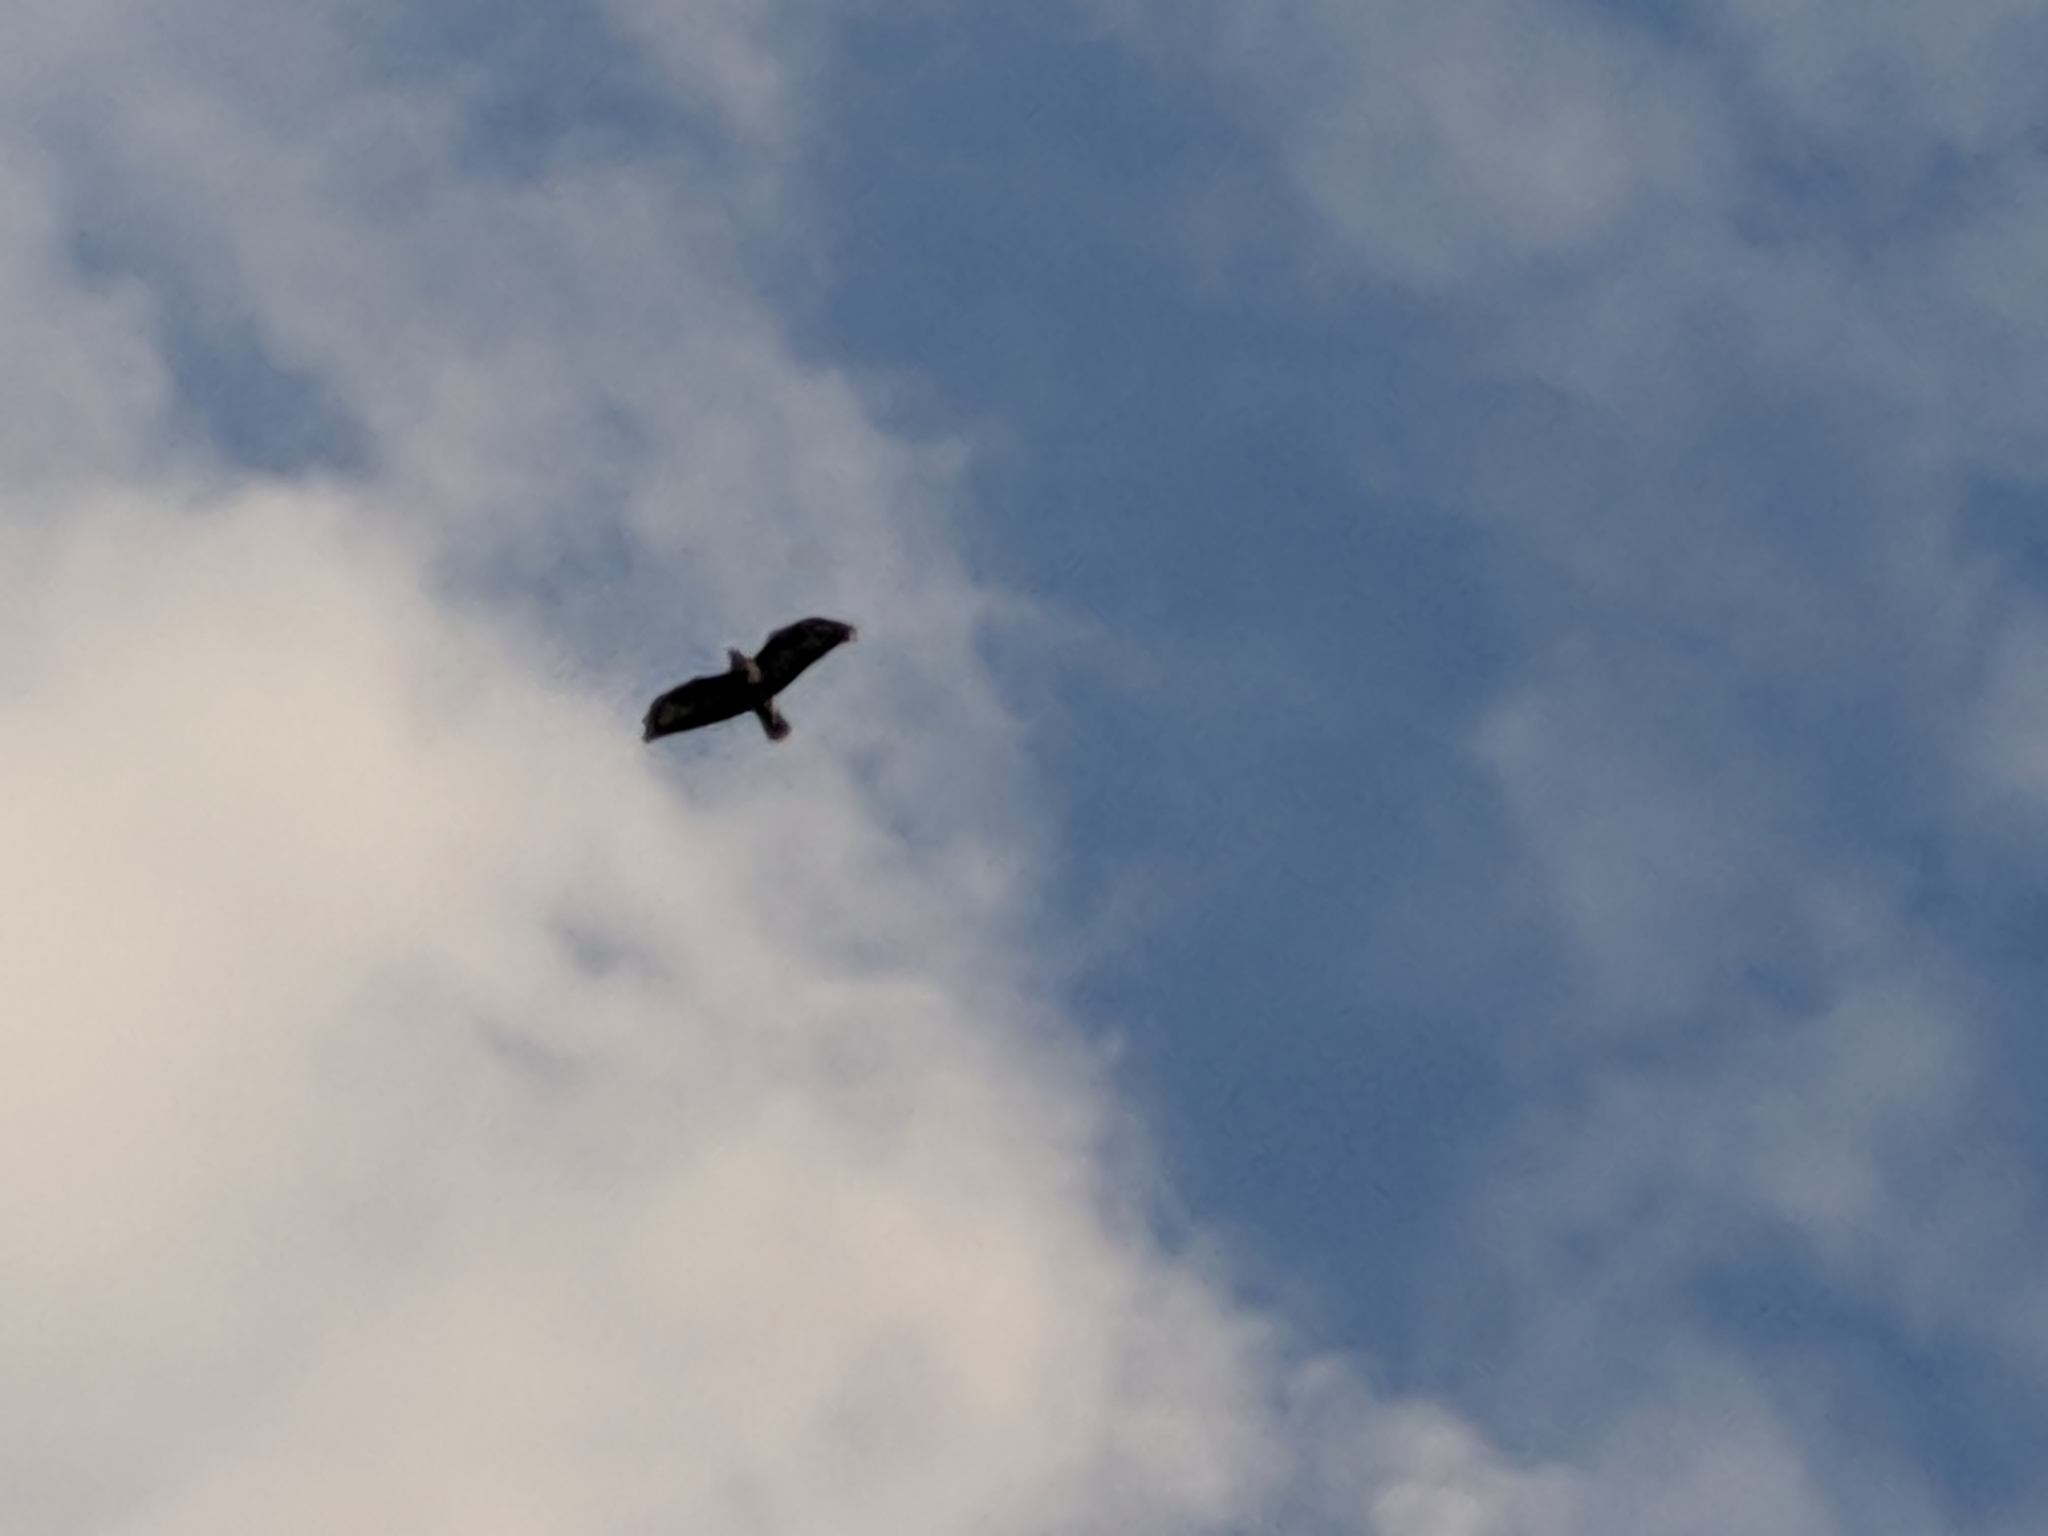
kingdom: Animalia
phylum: Chordata
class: Aves
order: Accipitriformes
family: Accipitridae
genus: Buteo
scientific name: Buteo buteo
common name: Common buzzard
